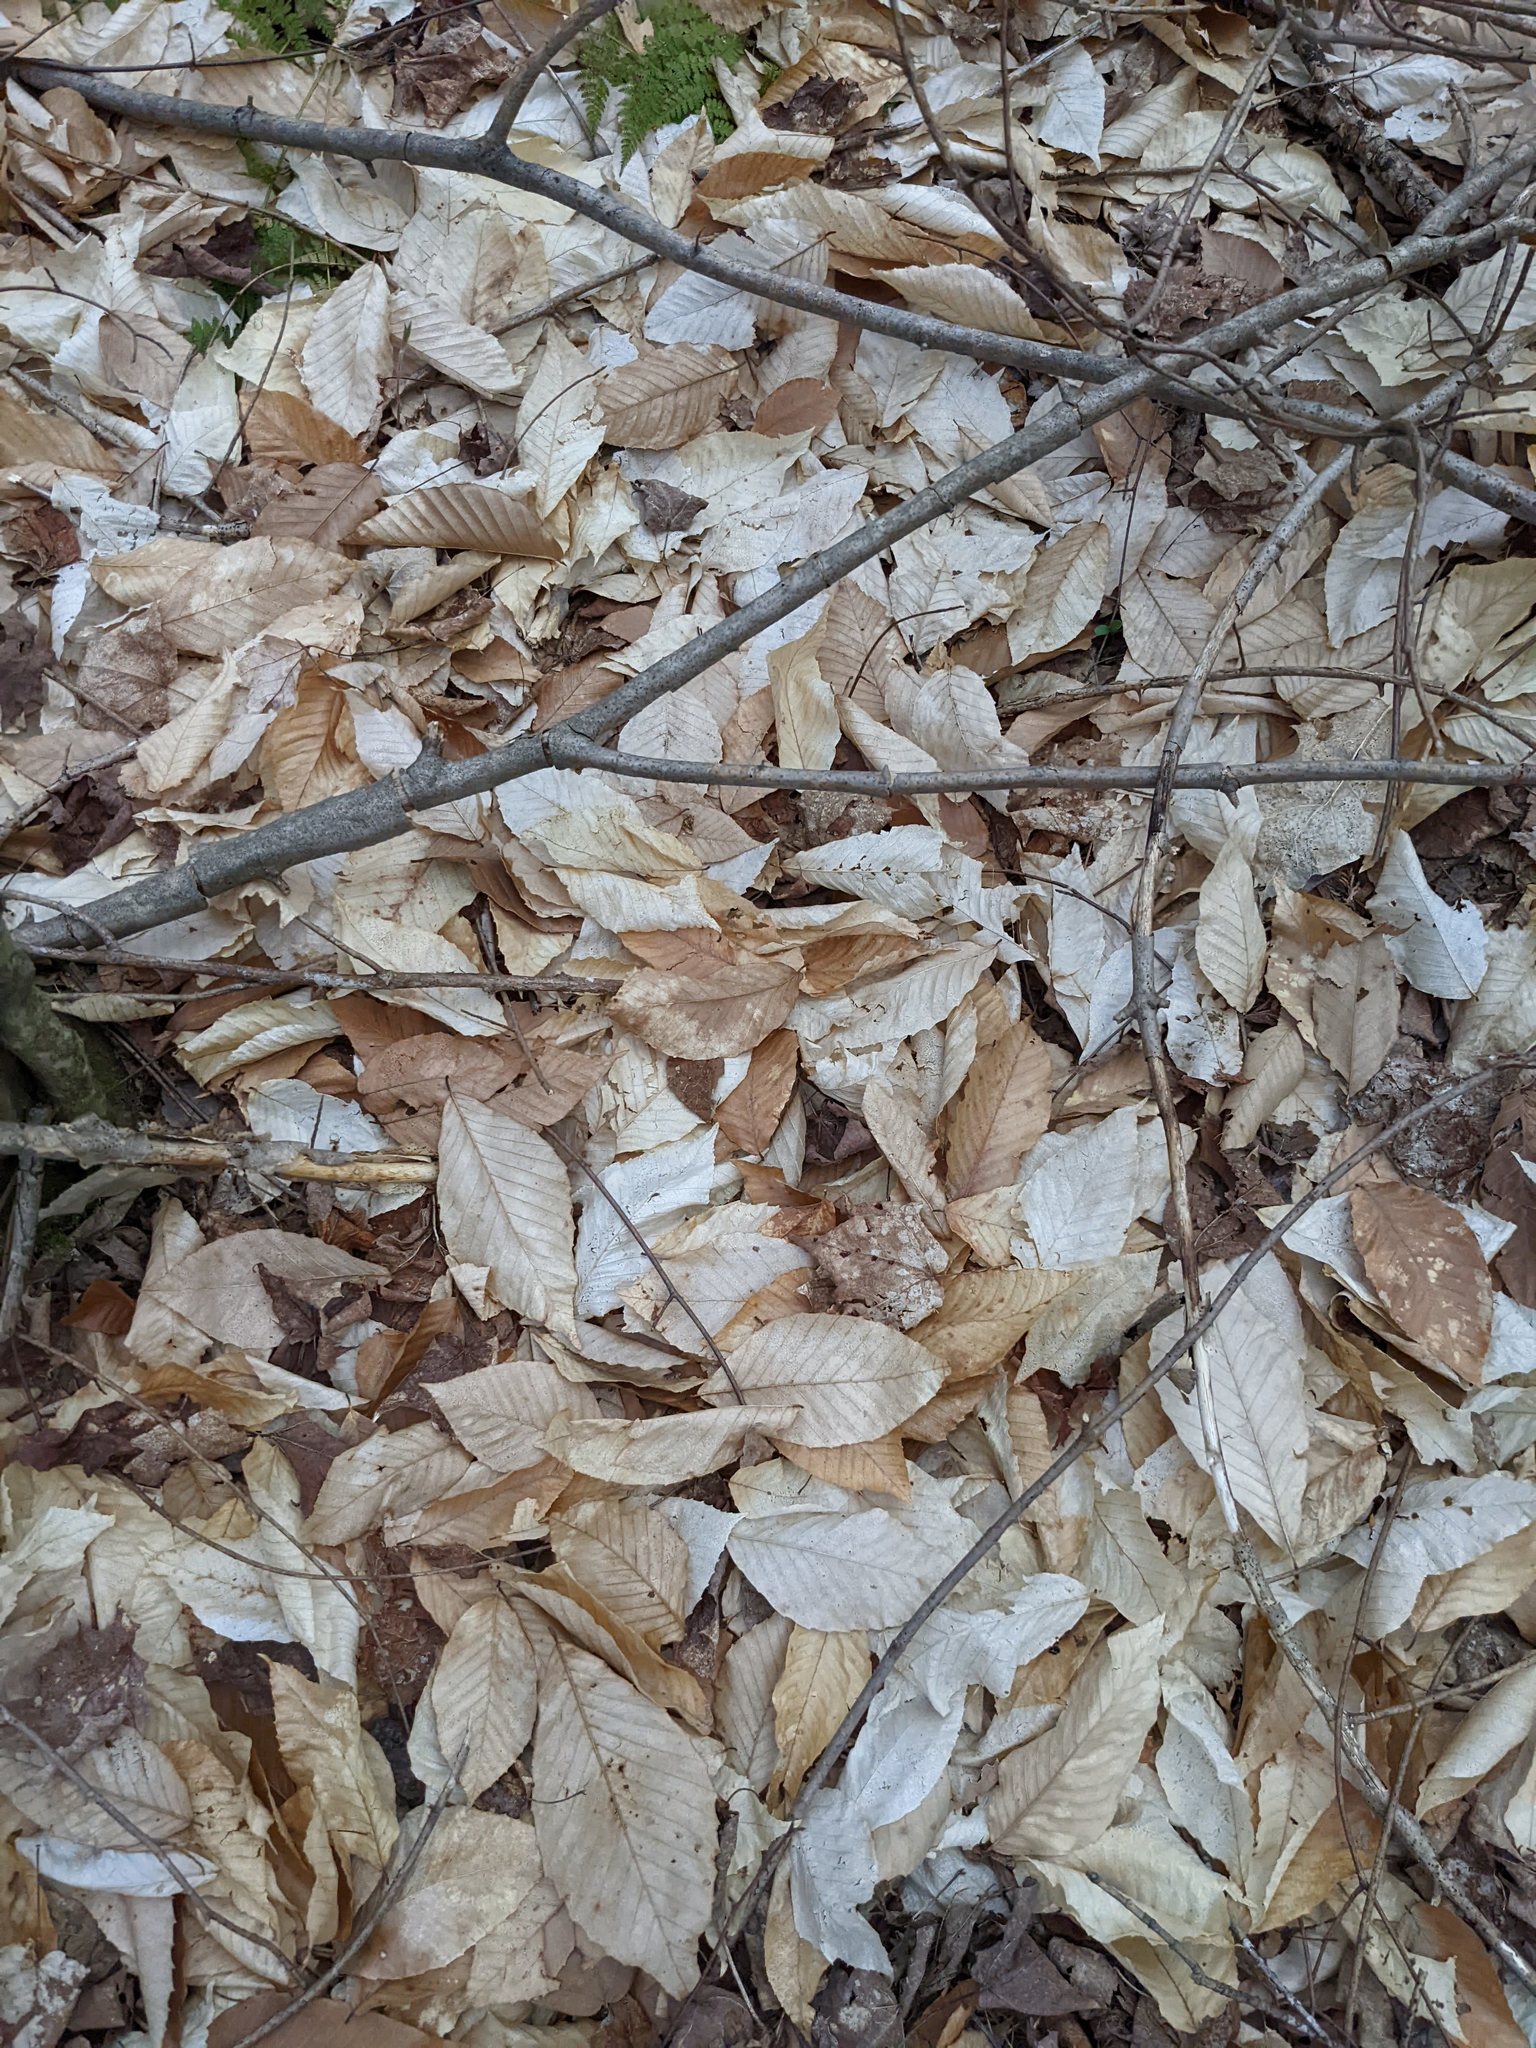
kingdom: Plantae
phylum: Tracheophyta
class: Magnoliopsida
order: Fagales
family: Fagaceae
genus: Fagus
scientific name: Fagus grandifolia
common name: American beech
